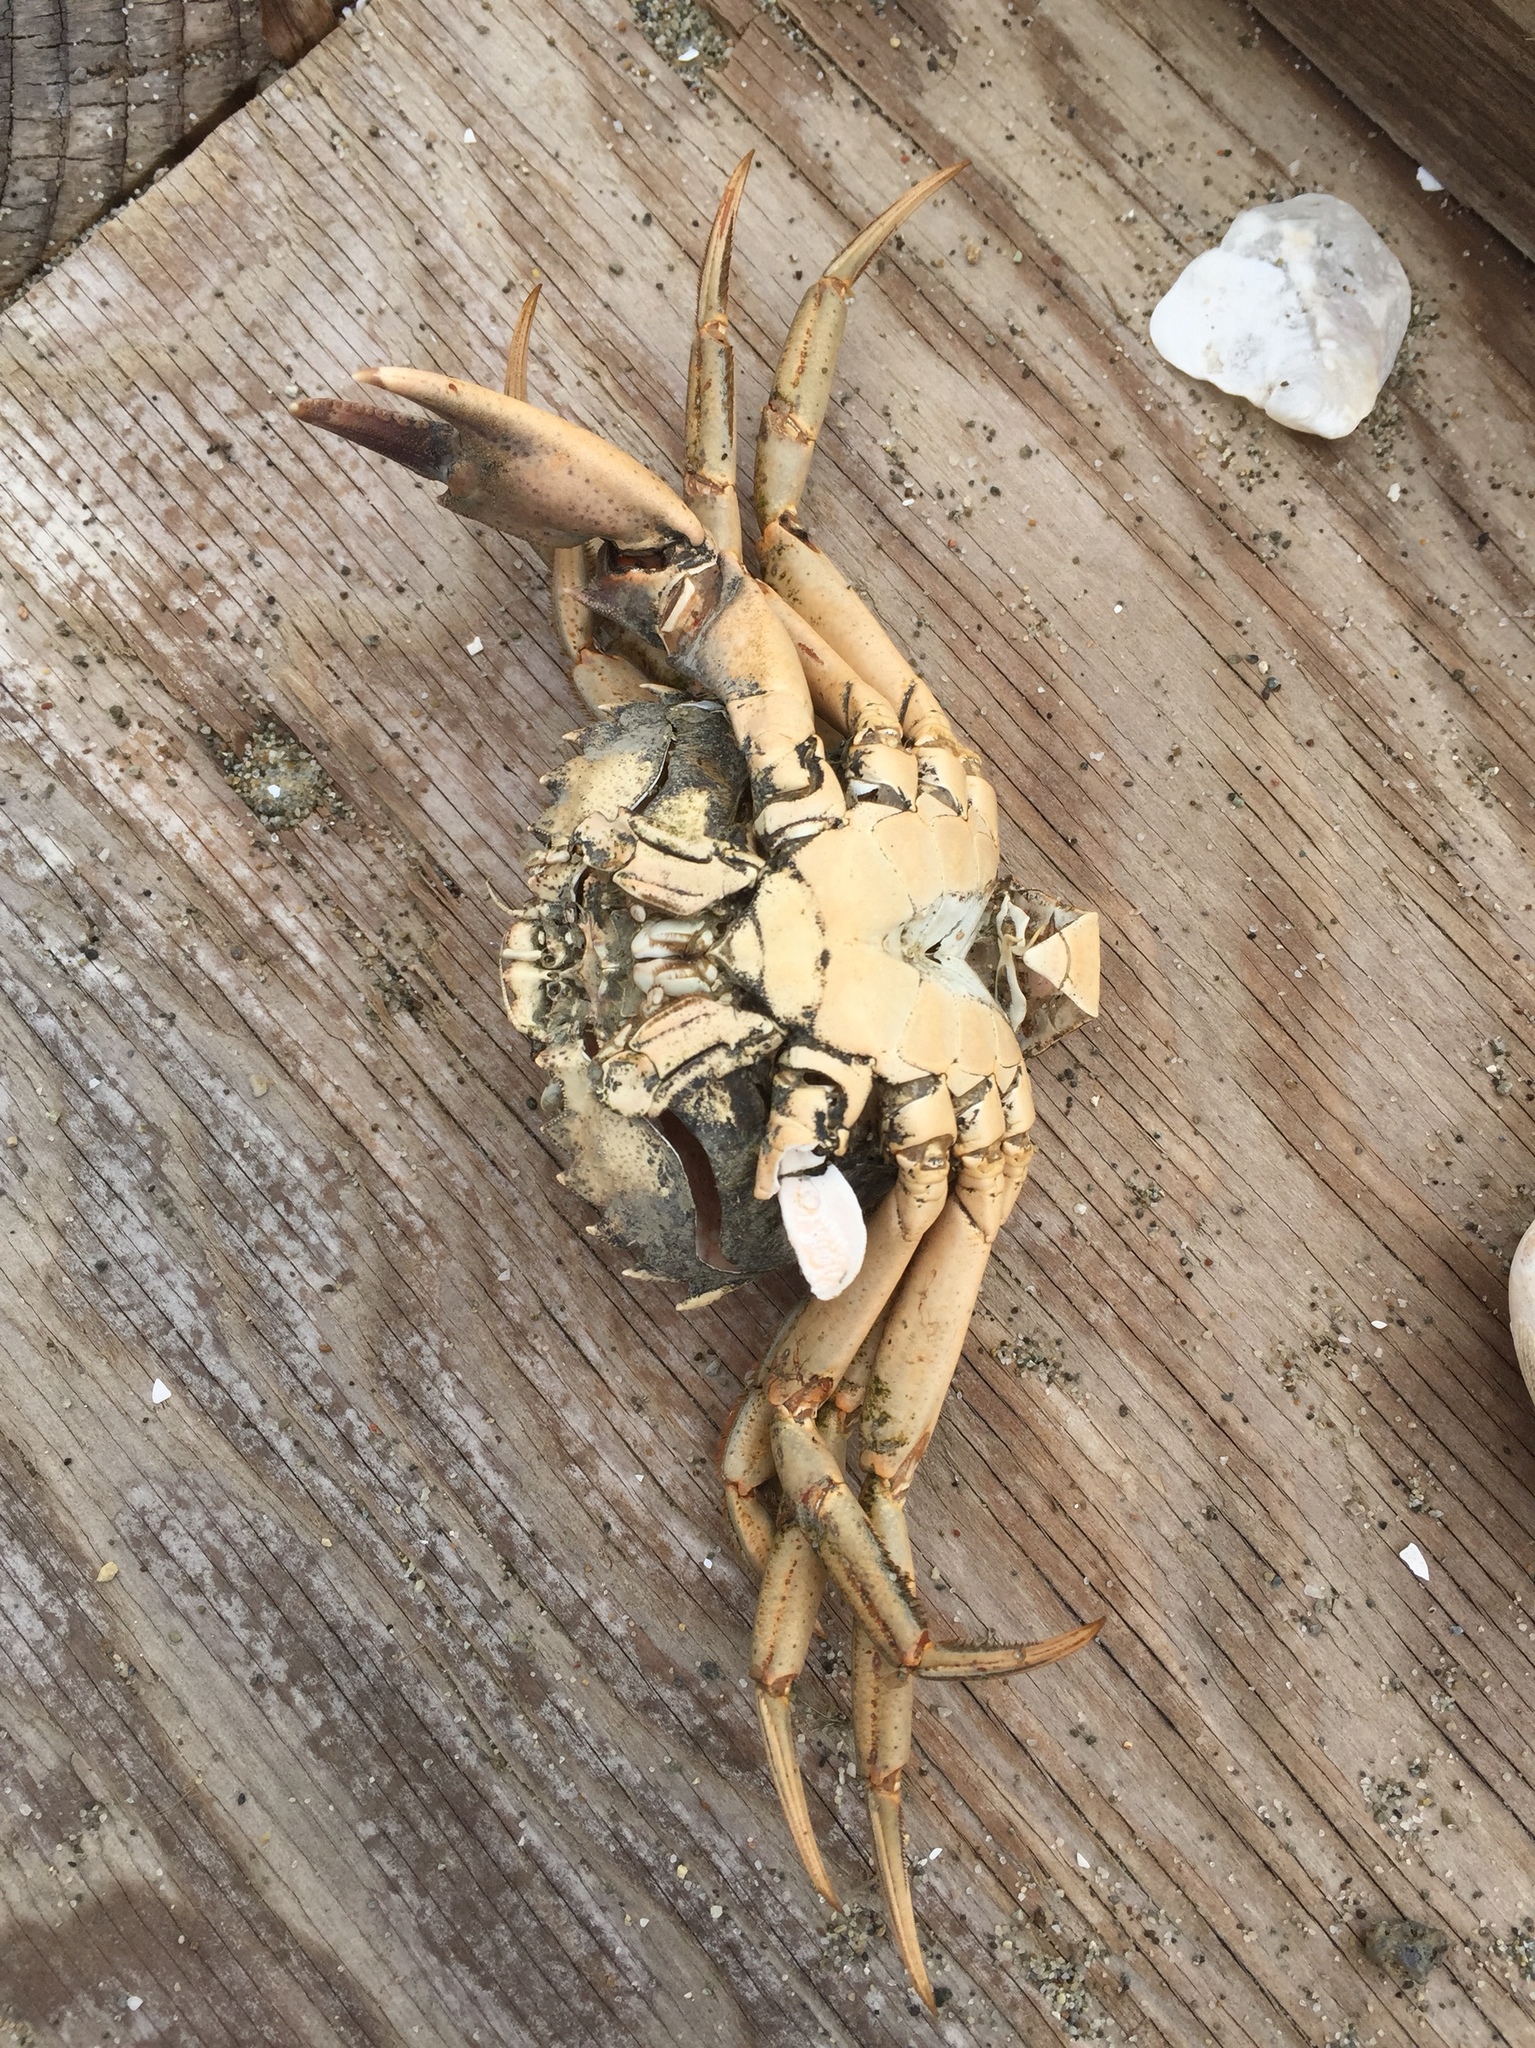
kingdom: Animalia
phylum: Arthropoda
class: Malacostraca
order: Decapoda
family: Carcinidae
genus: Carcinus
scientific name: Carcinus maenas
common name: European green crab
